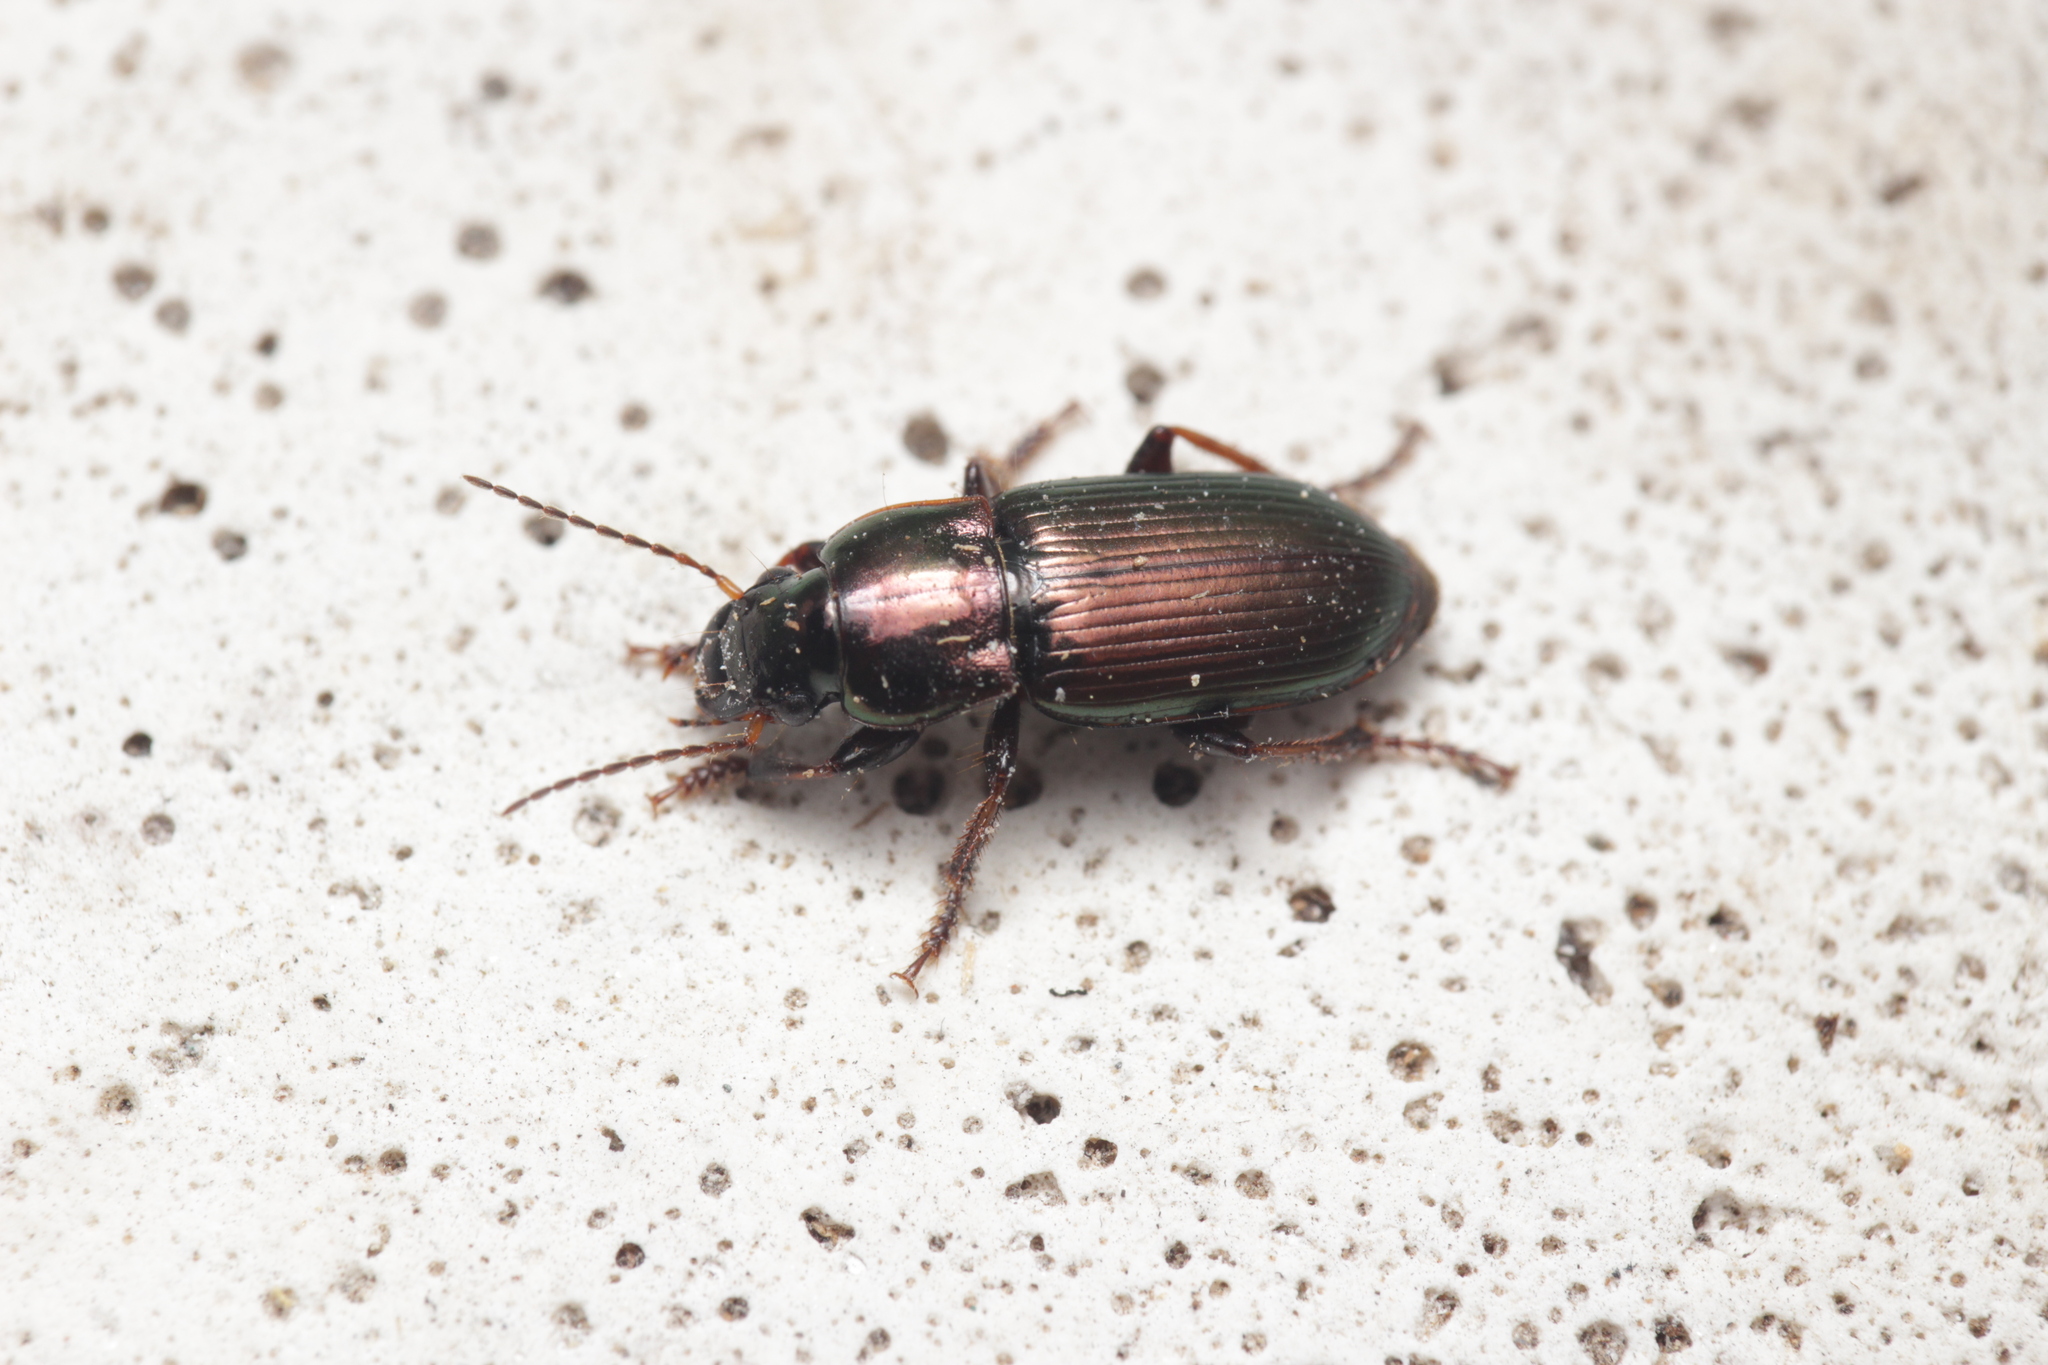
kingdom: Animalia
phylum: Arthropoda
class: Insecta
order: Coleoptera
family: Carabidae
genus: Harpalus
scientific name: Harpalus distinguendus
